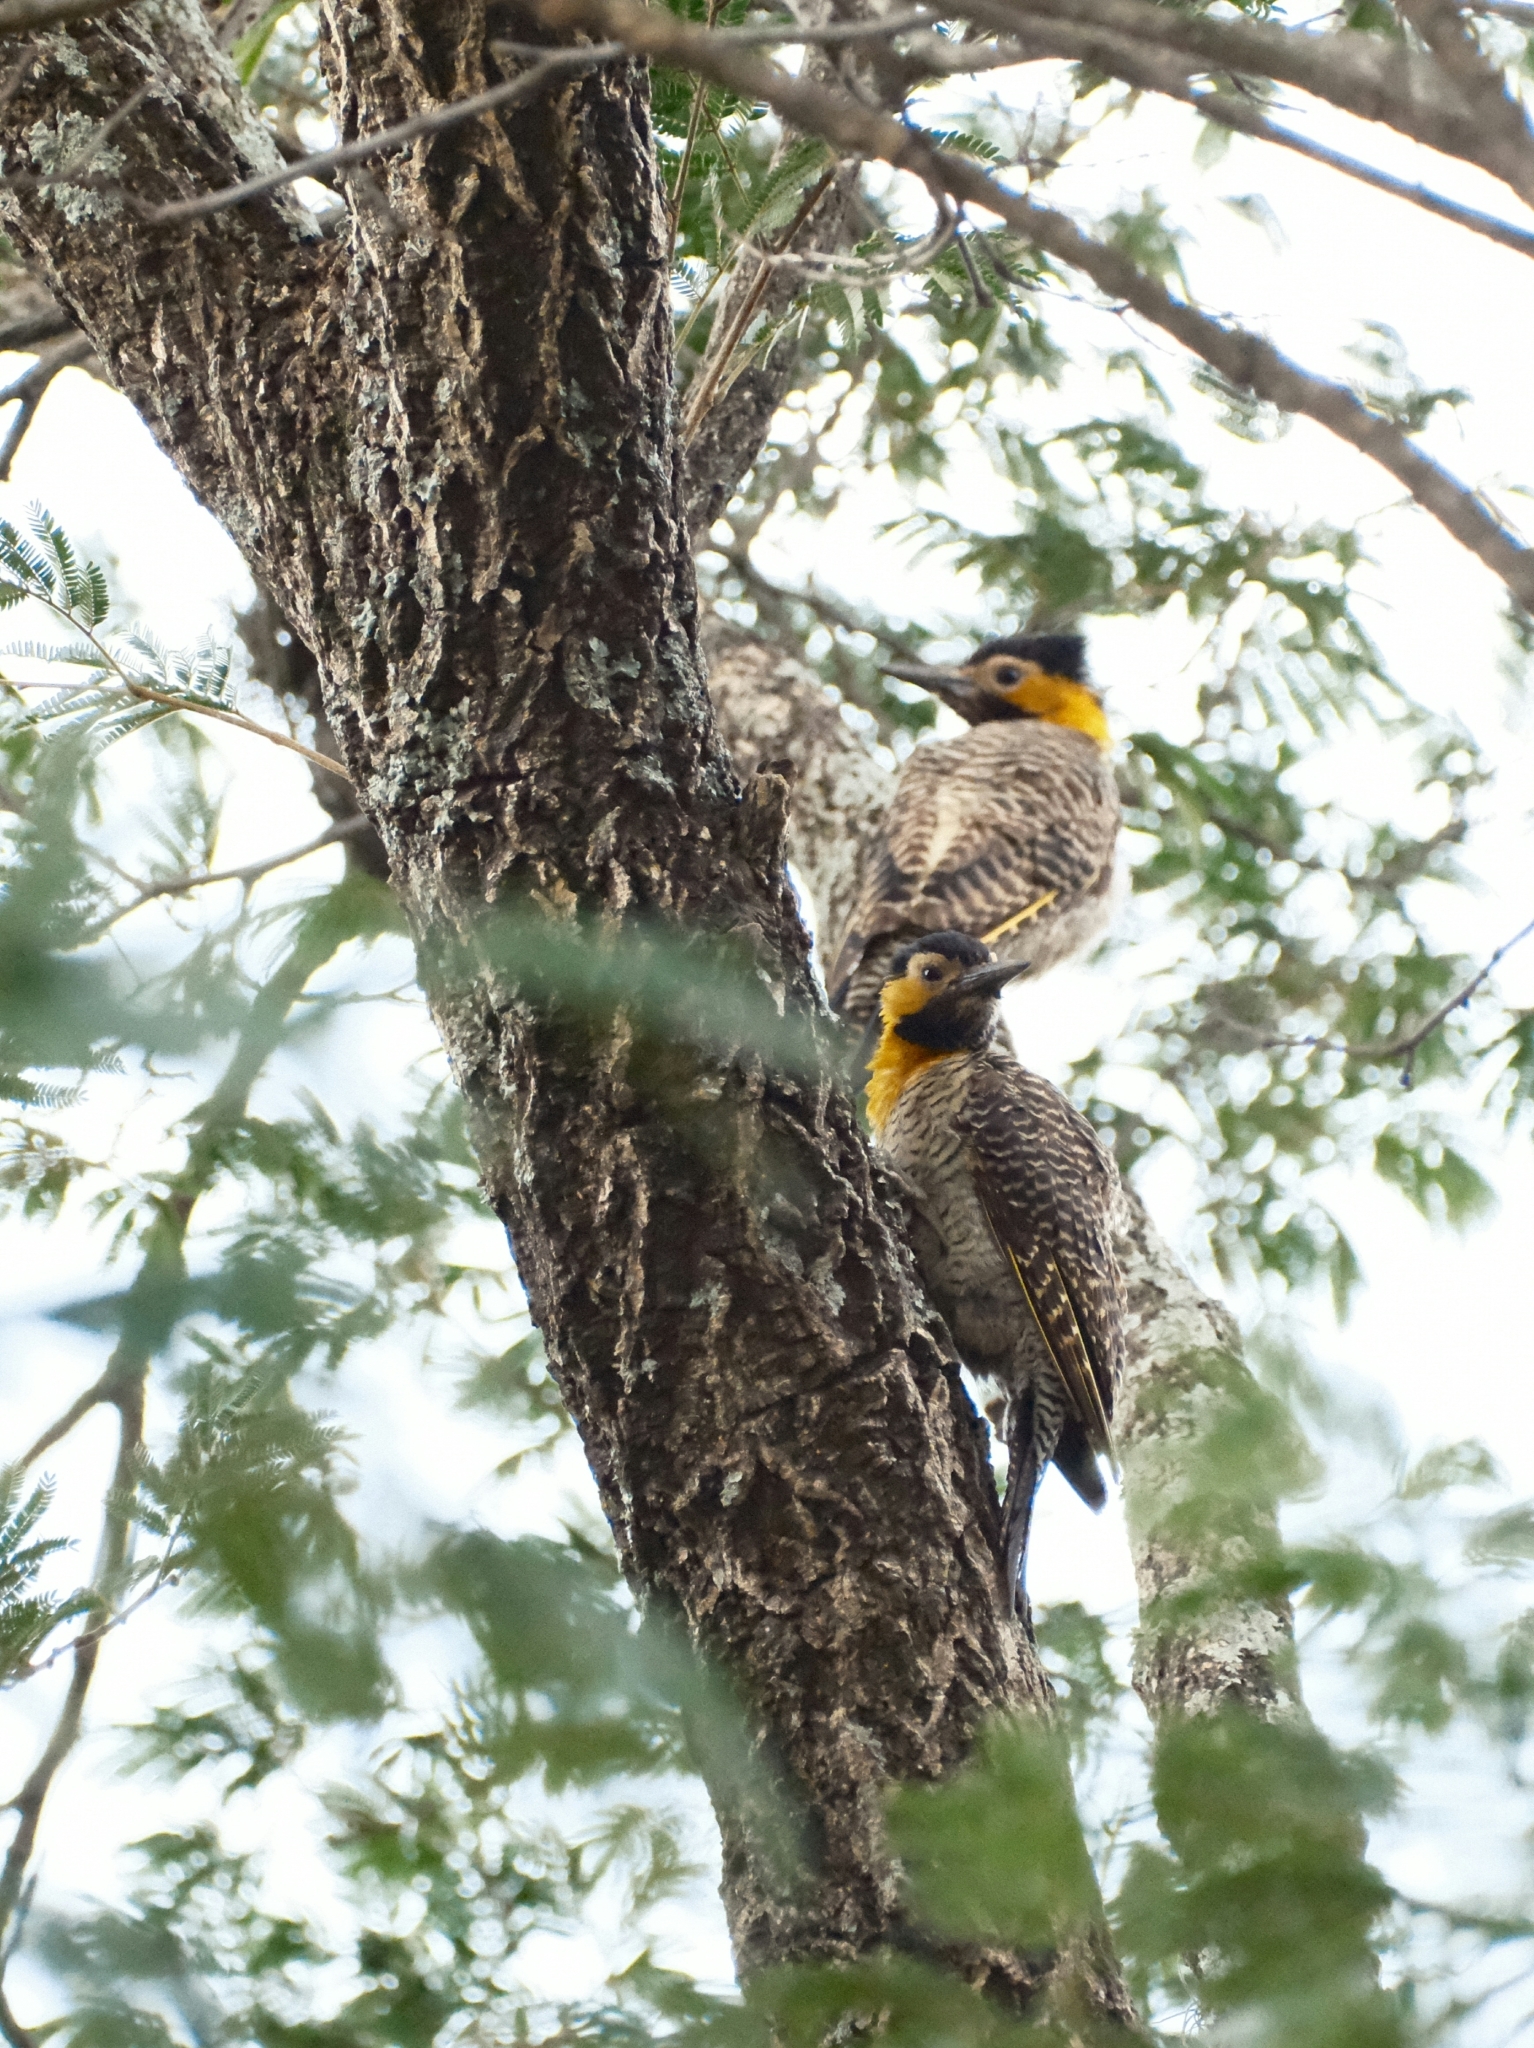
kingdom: Animalia
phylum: Chordata
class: Aves
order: Piciformes
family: Picidae
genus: Colaptes
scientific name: Colaptes campestris
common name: Campo flicker
